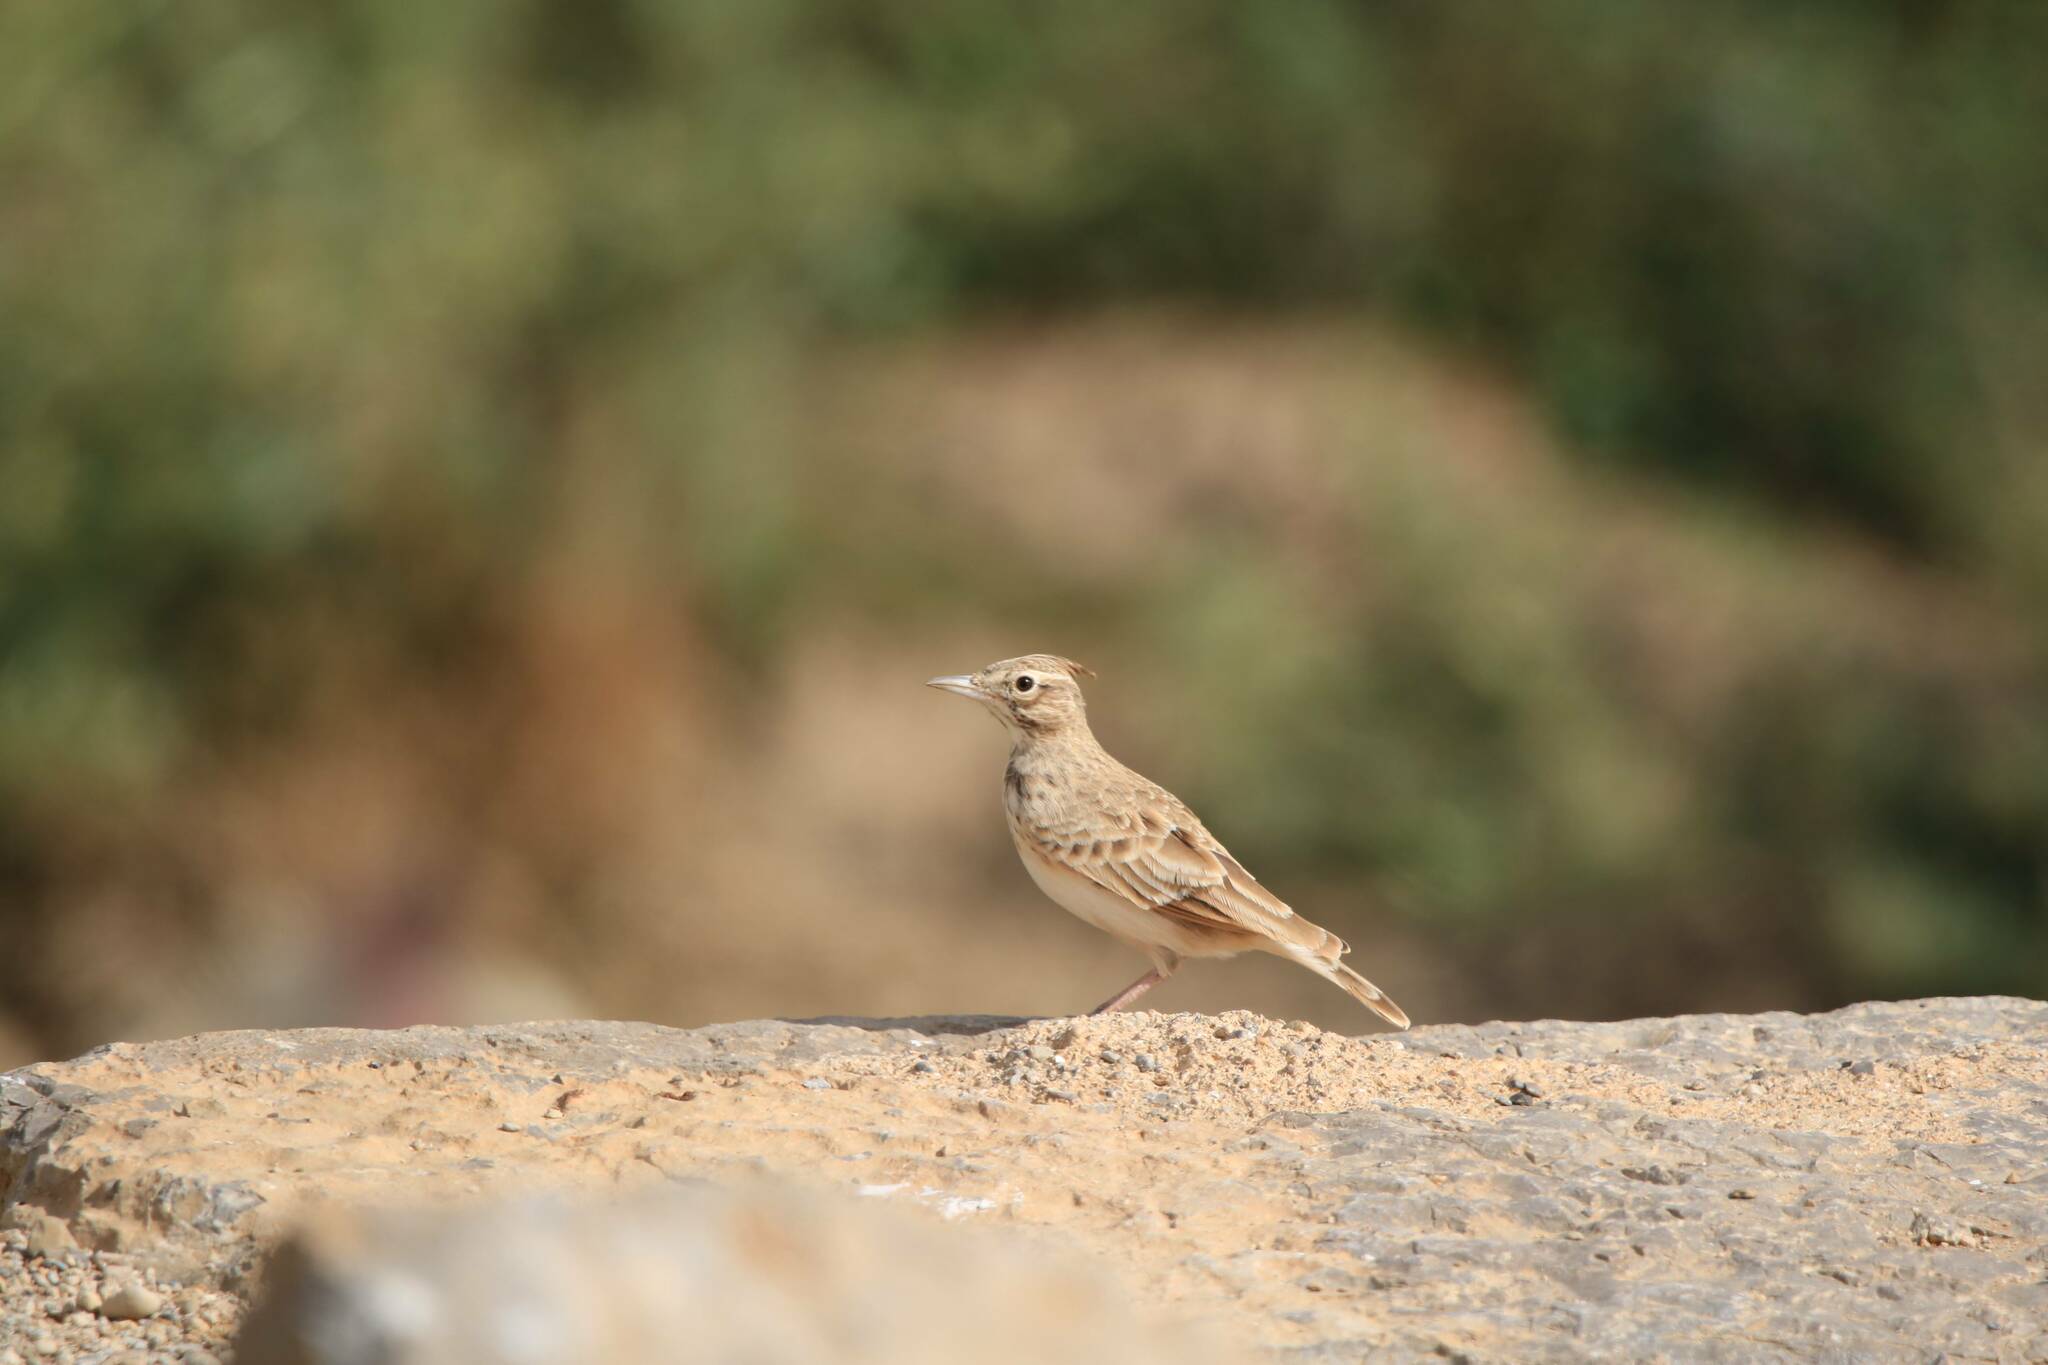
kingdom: Animalia
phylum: Chordata
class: Aves
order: Passeriformes
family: Alaudidae
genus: Galerida
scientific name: Galerida cristata
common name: Crested lark
